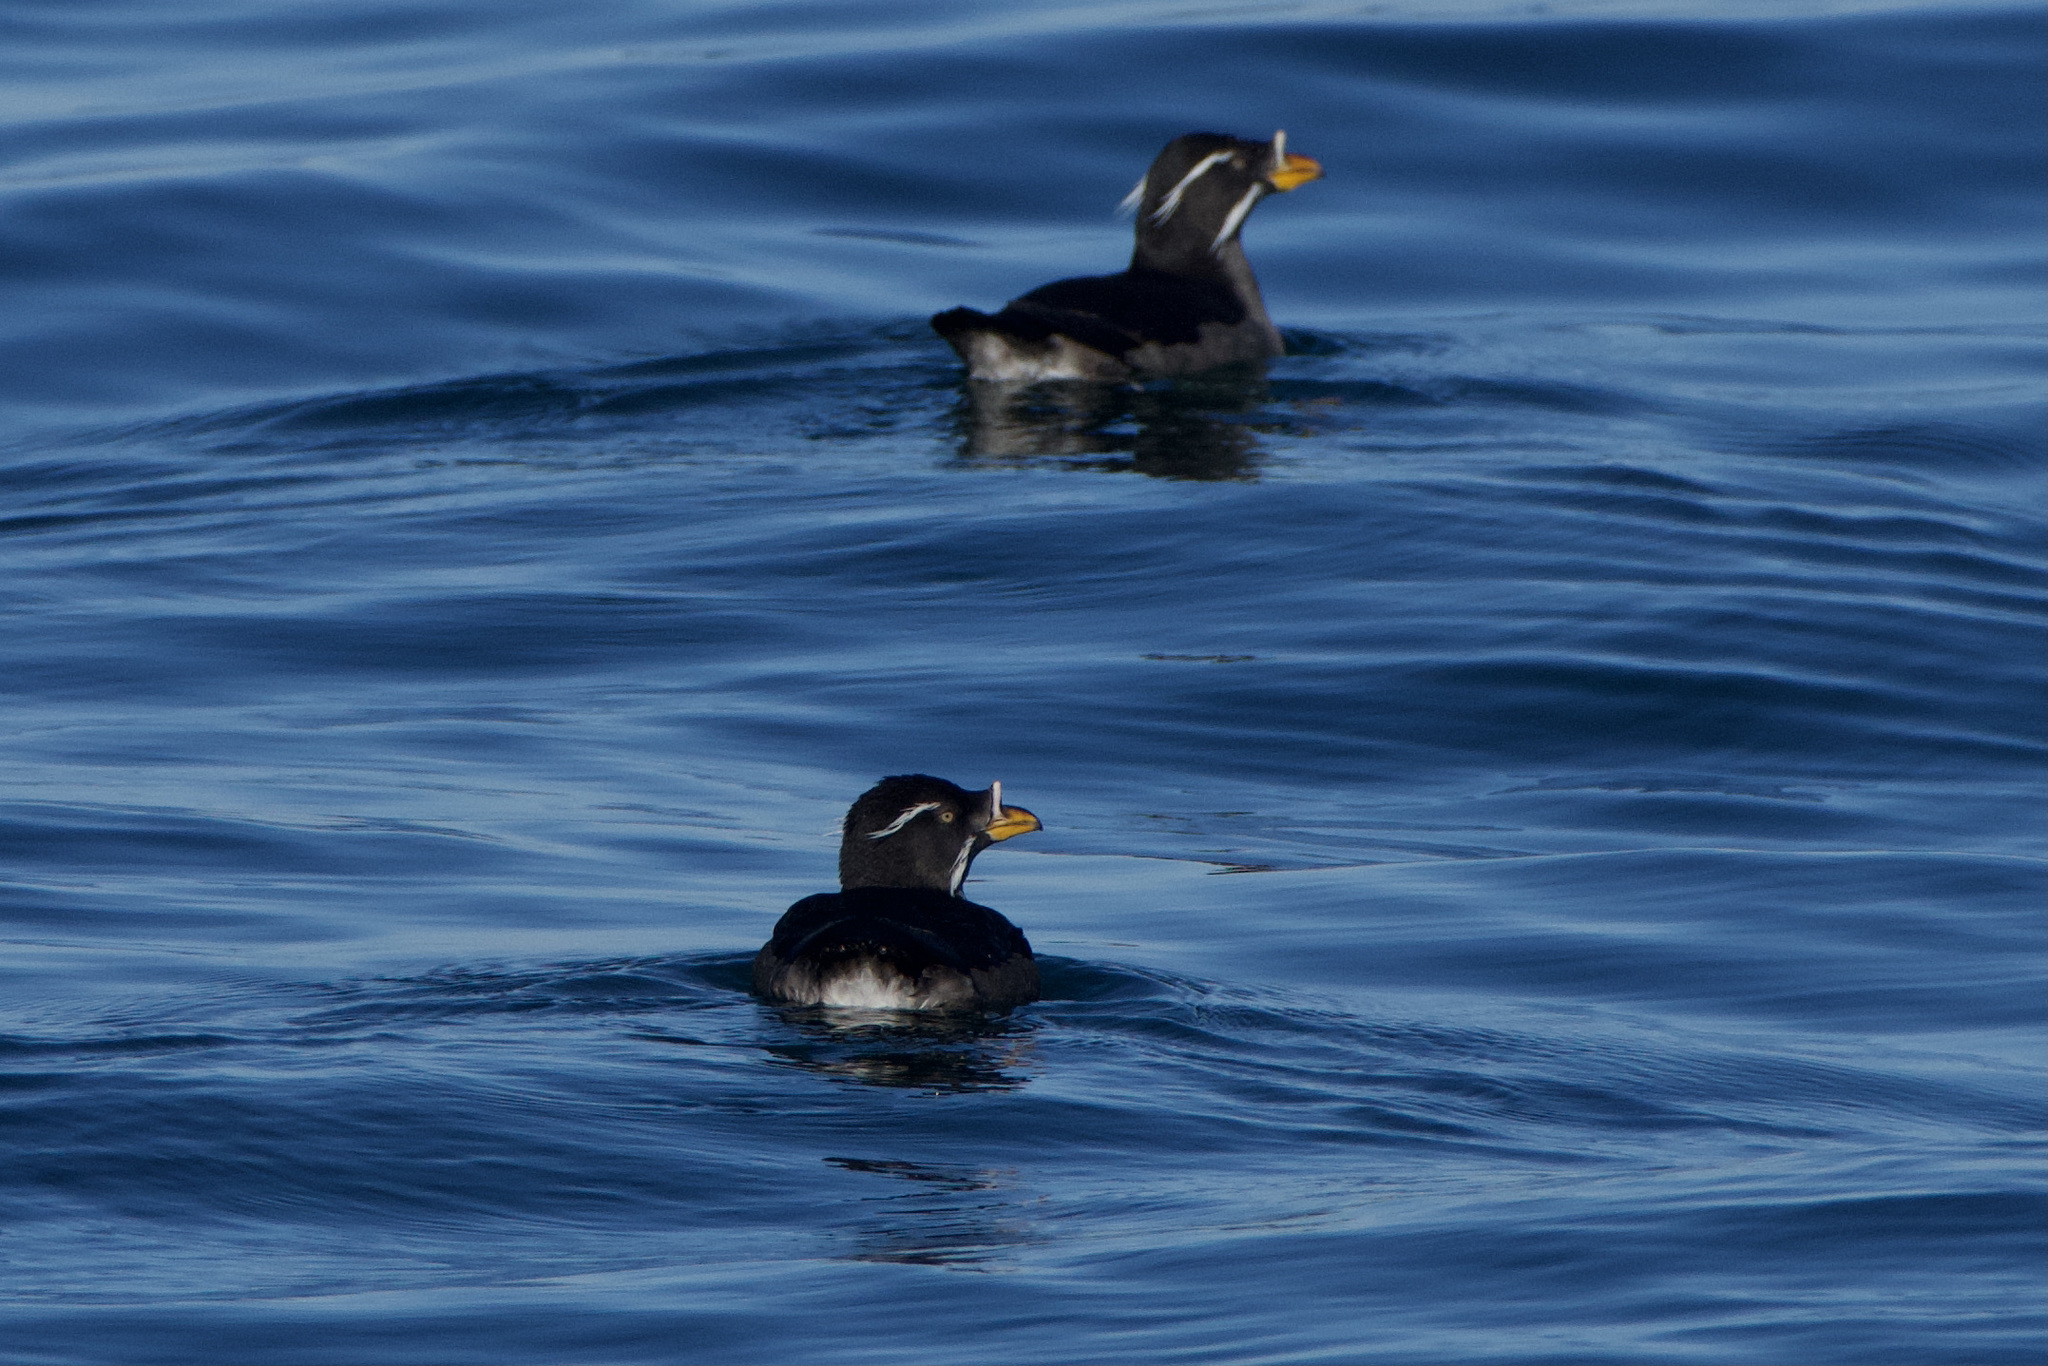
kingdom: Animalia
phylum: Chordata
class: Aves
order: Charadriiformes
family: Alcidae
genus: Cerorhinca
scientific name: Cerorhinca monocerata
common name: Rhinoceros auklet
